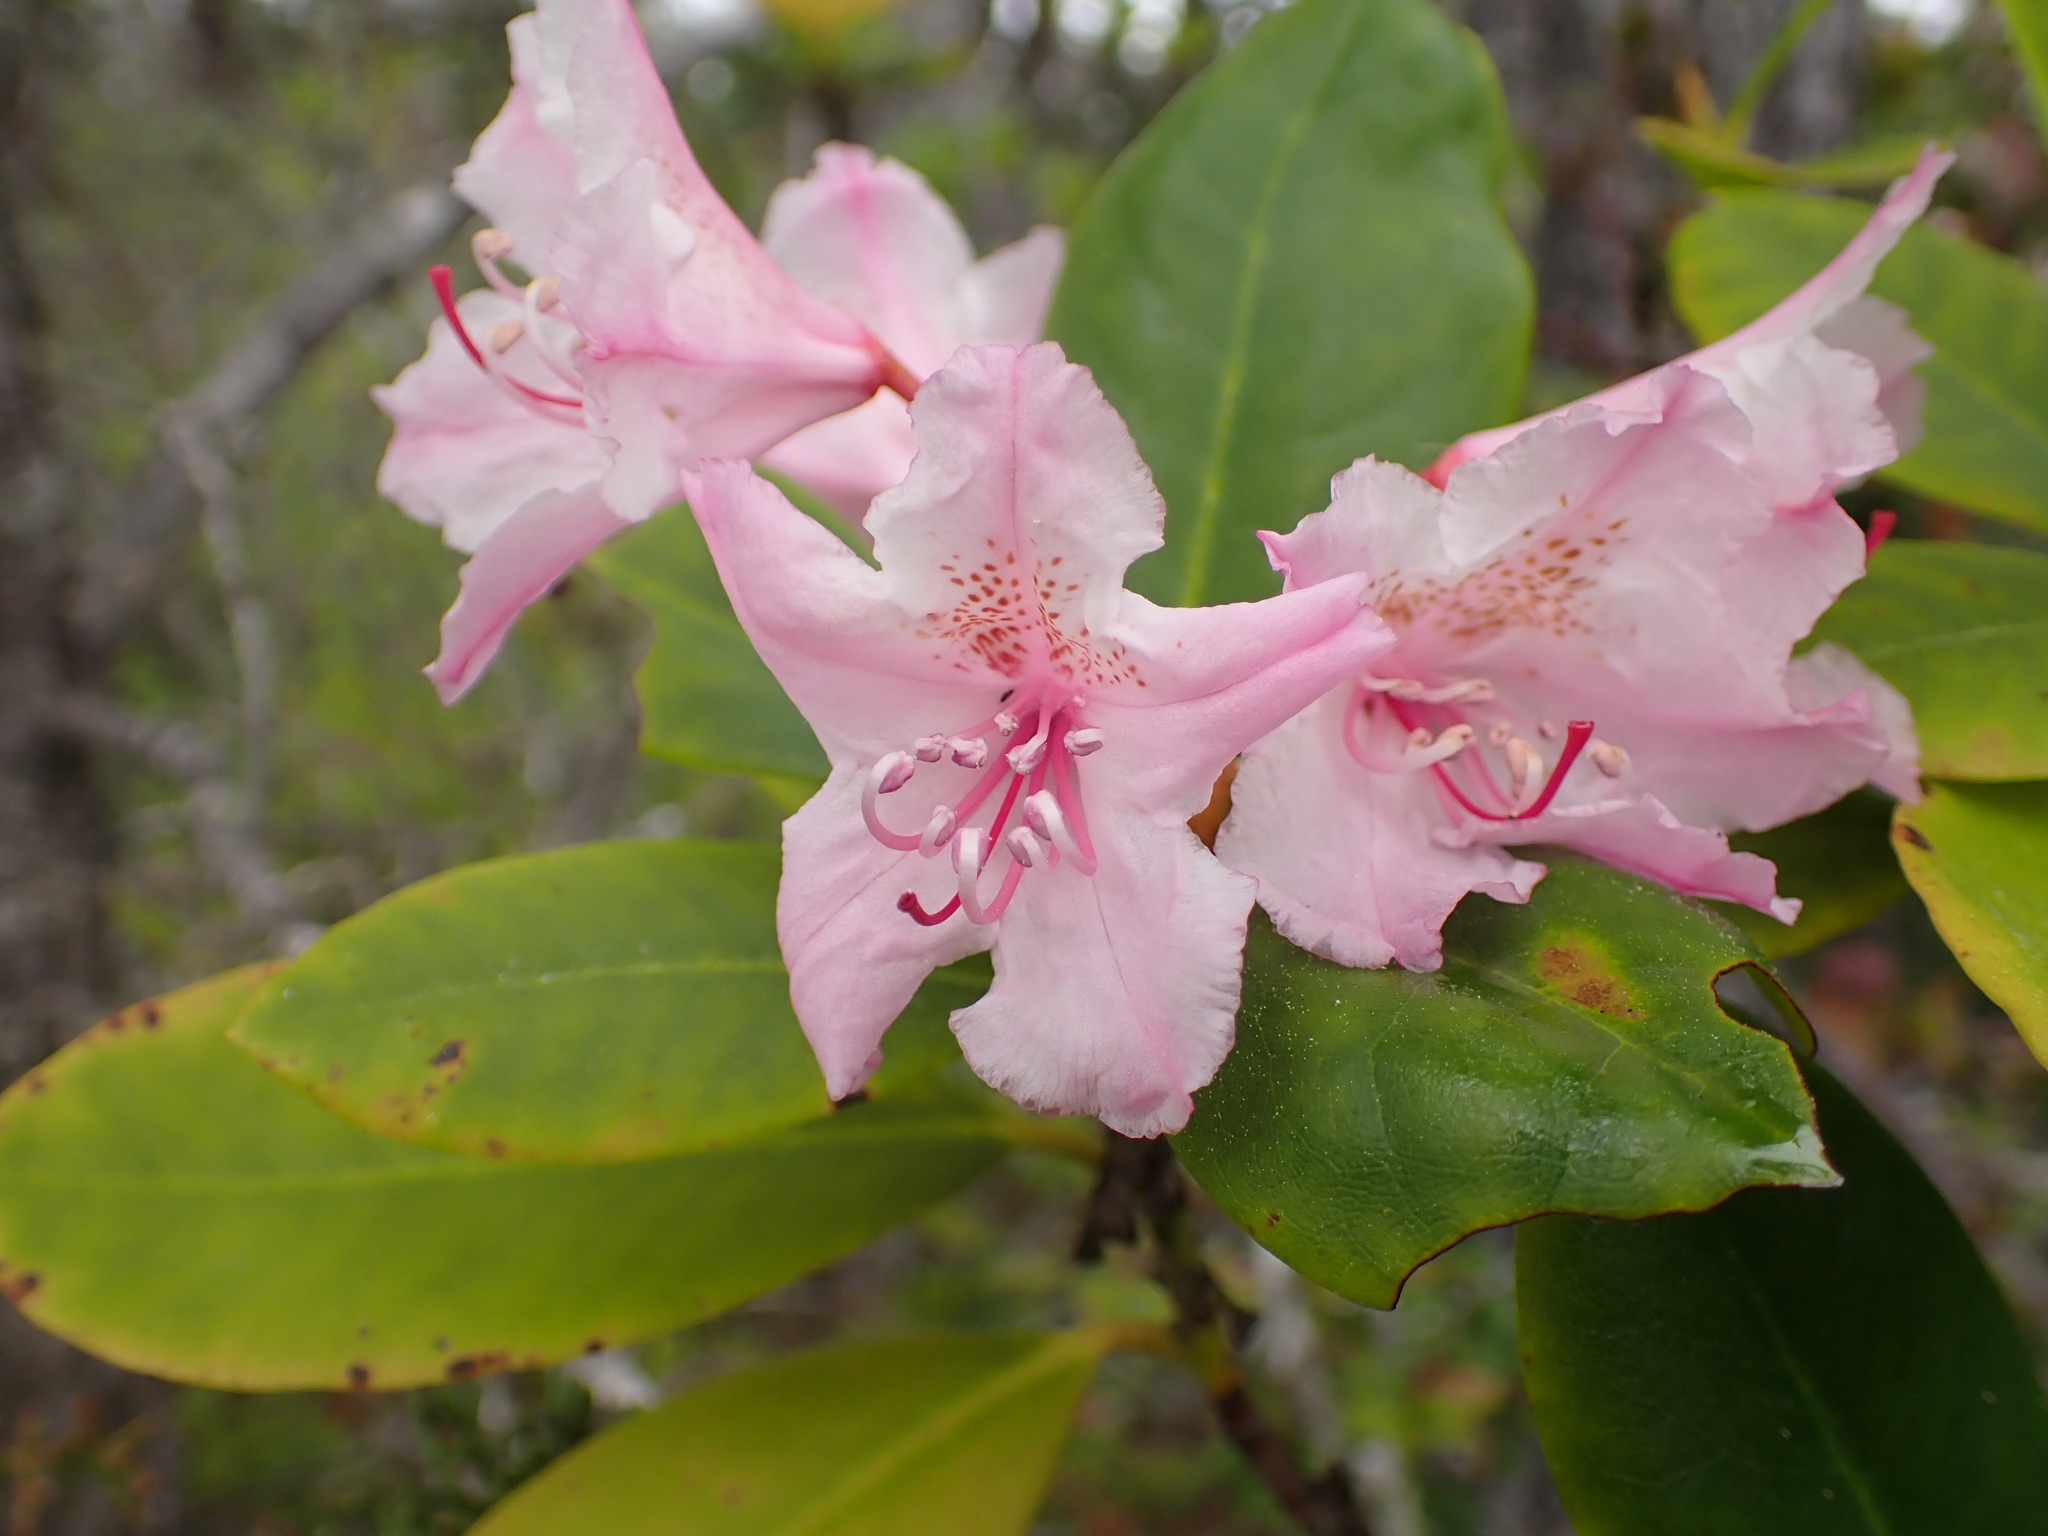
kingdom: Plantae
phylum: Tracheophyta
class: Magnoliopsida
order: Ericales
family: Ericaceae
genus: Rhododendron
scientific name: Rhododendron macrophyllum
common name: California rose bay
